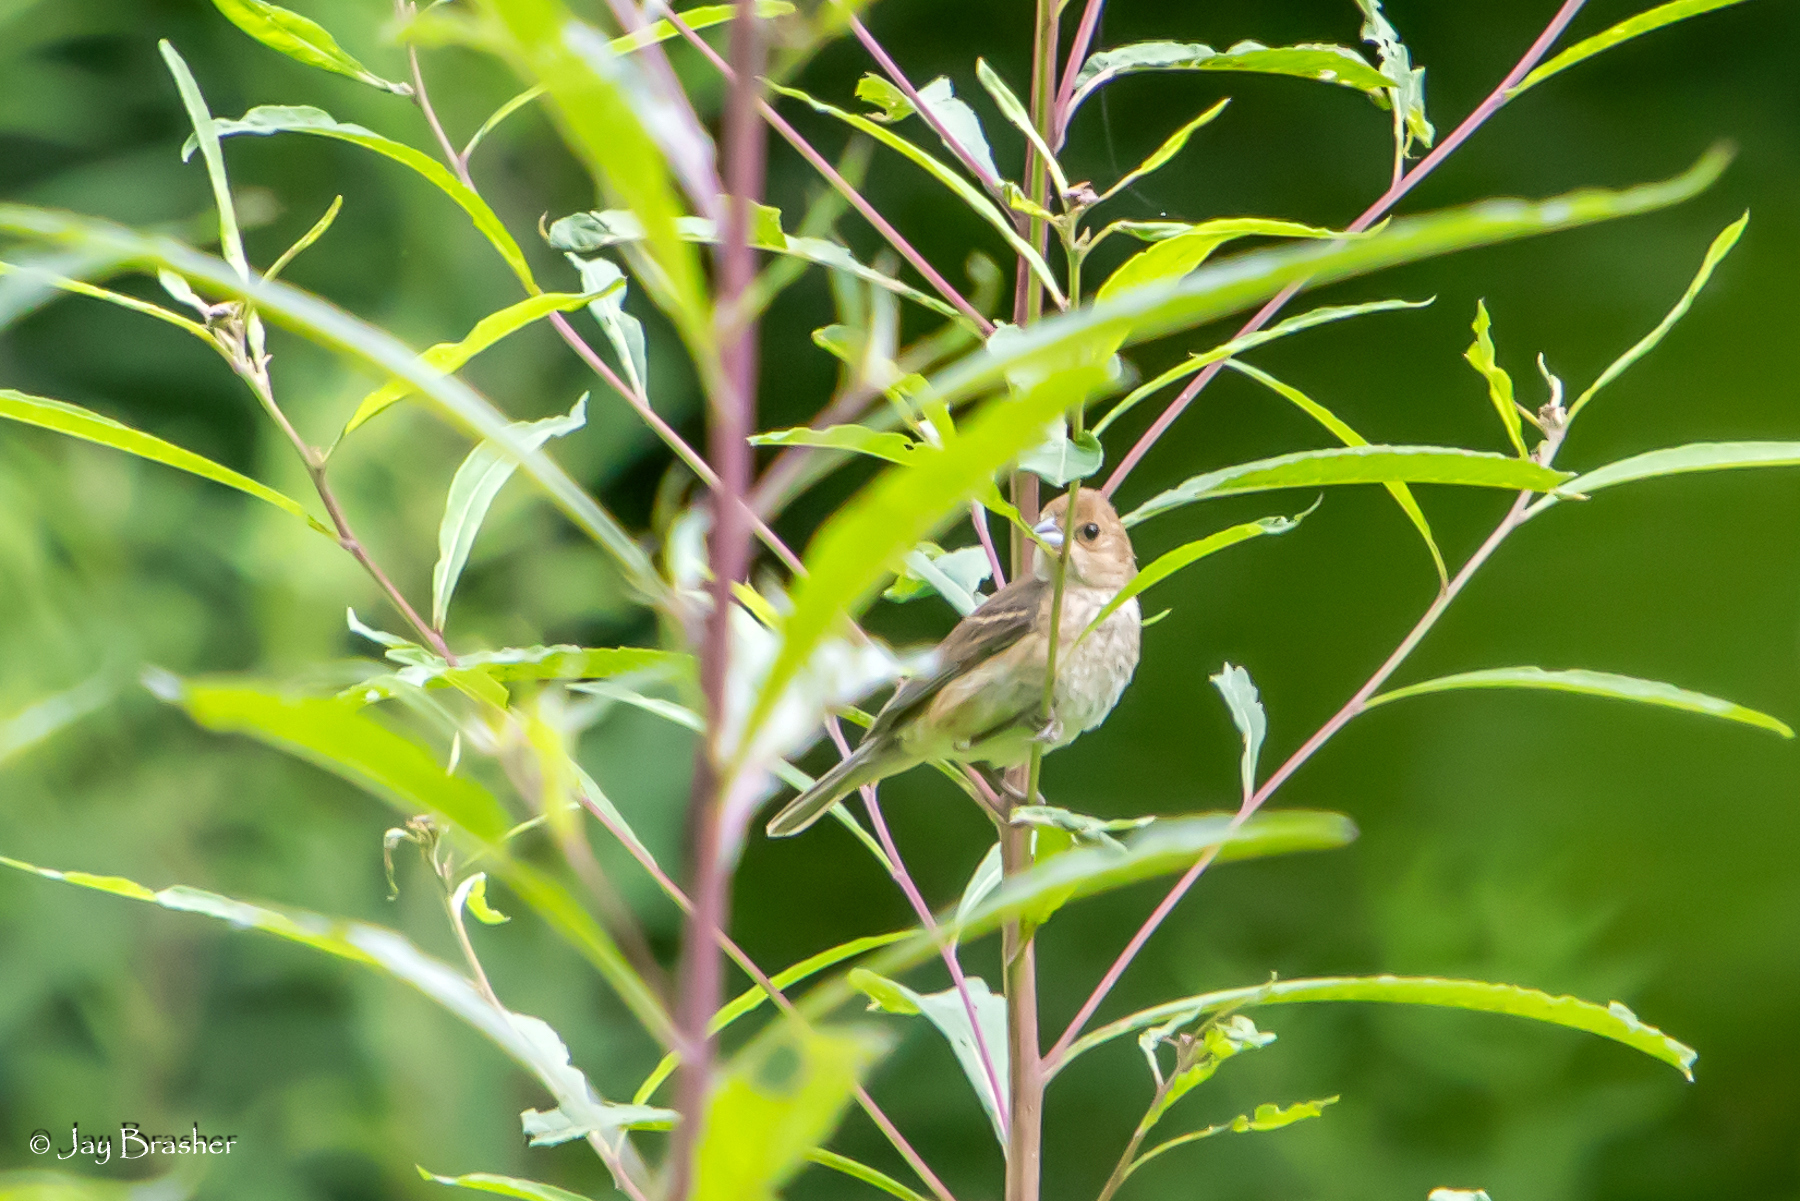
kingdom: Animalia
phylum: Chordata
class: Aves
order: Passeriformes
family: Cardinalidae
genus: Passerina
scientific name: Passerina cyanea
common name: Indigo bunting
